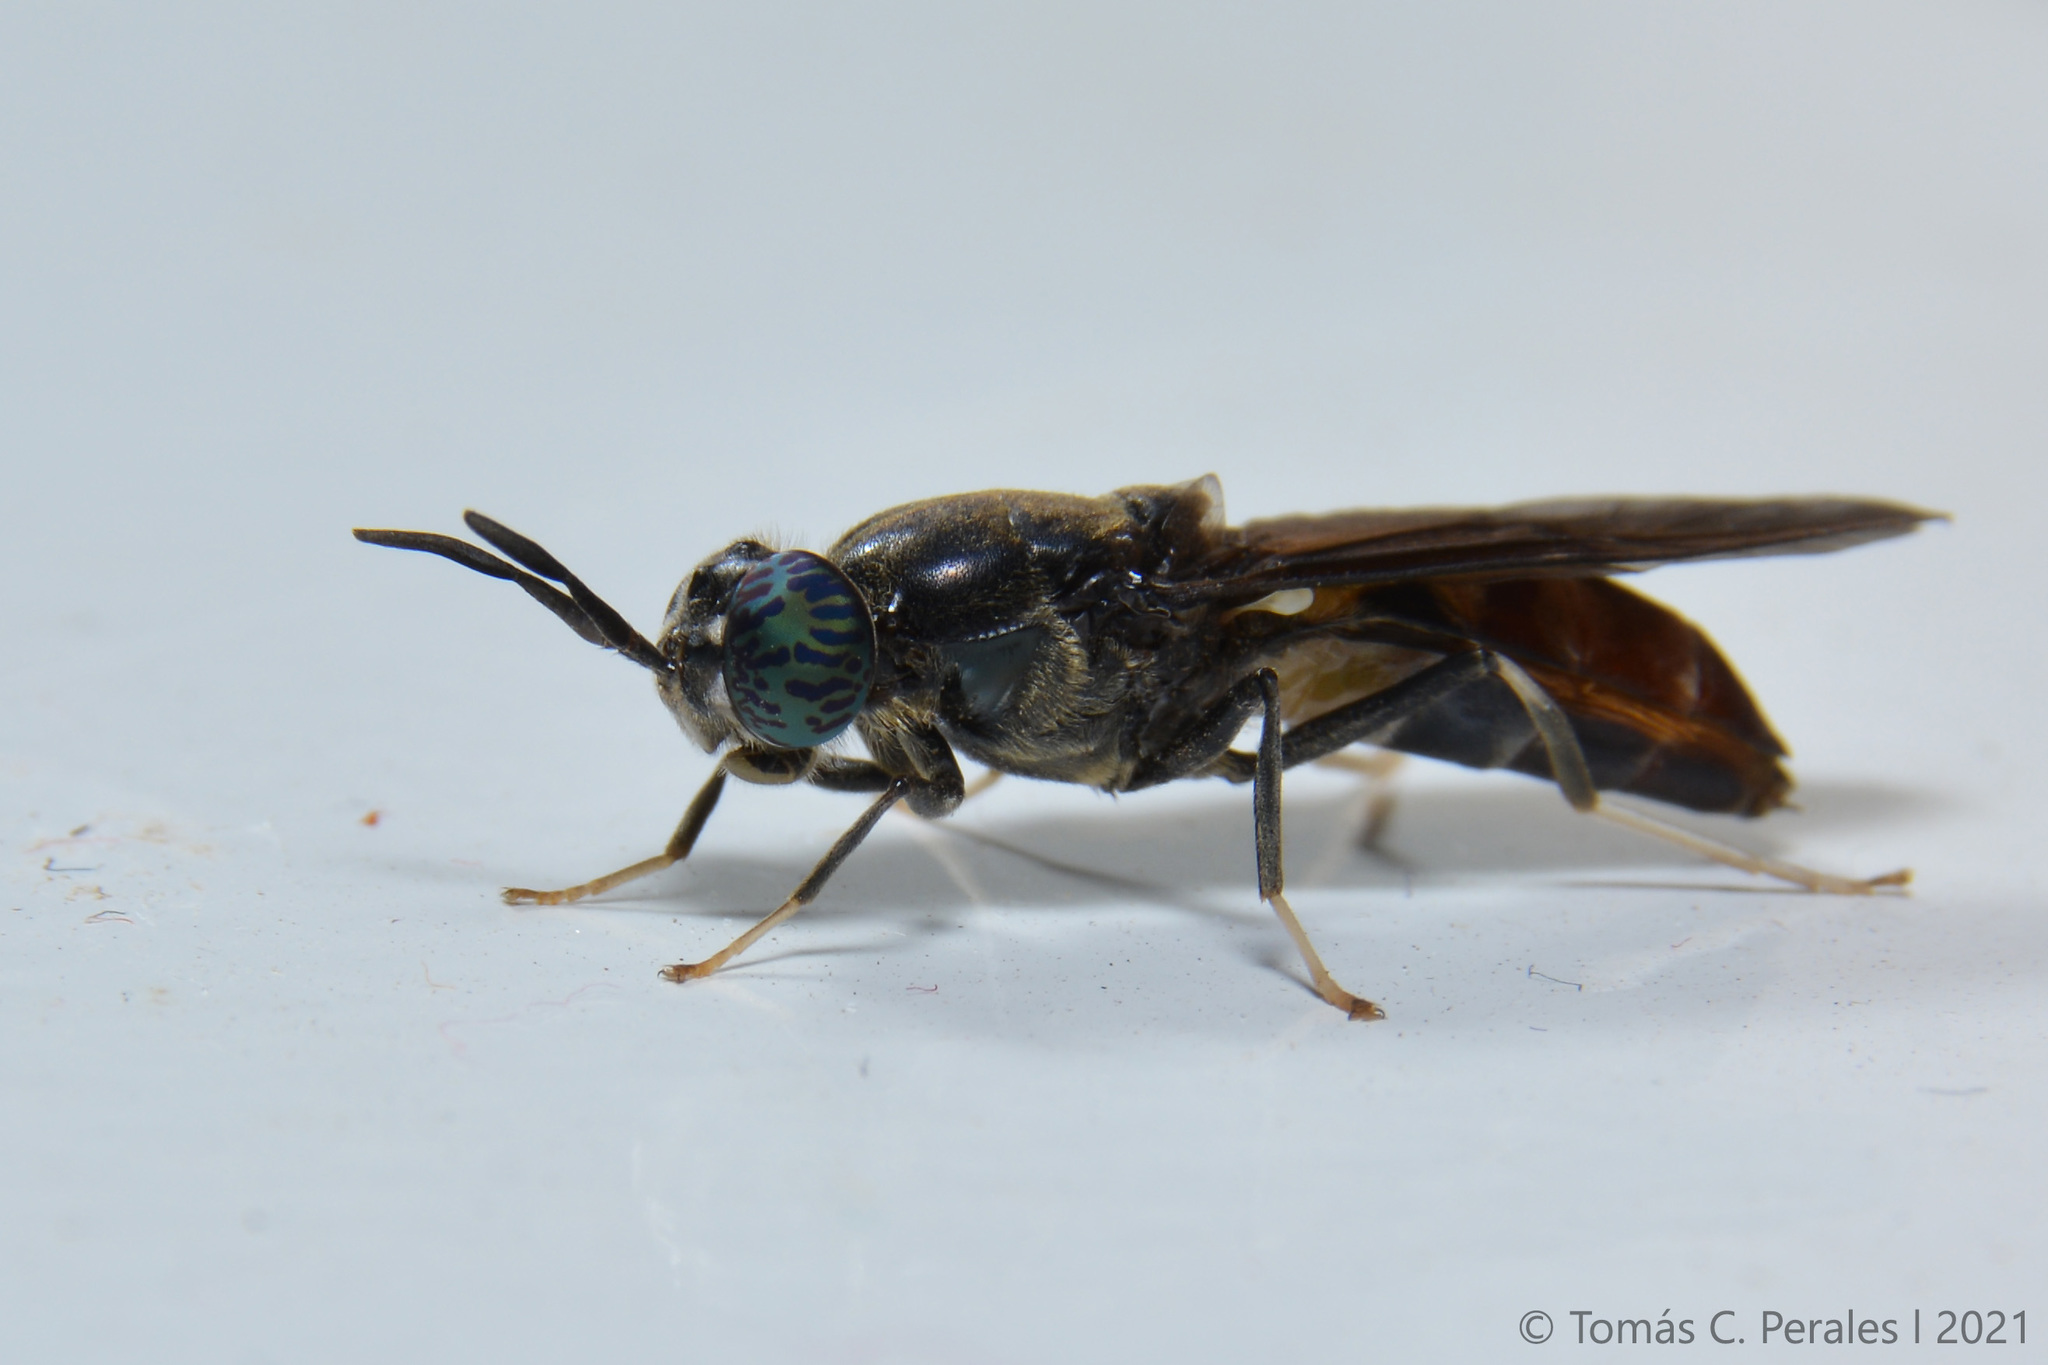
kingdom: Animalia
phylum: Arthropoda
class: Insecta
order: Diptera
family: Stratiomyidae
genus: Hermetia
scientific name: Hermetia illucens
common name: Black soldier fly
